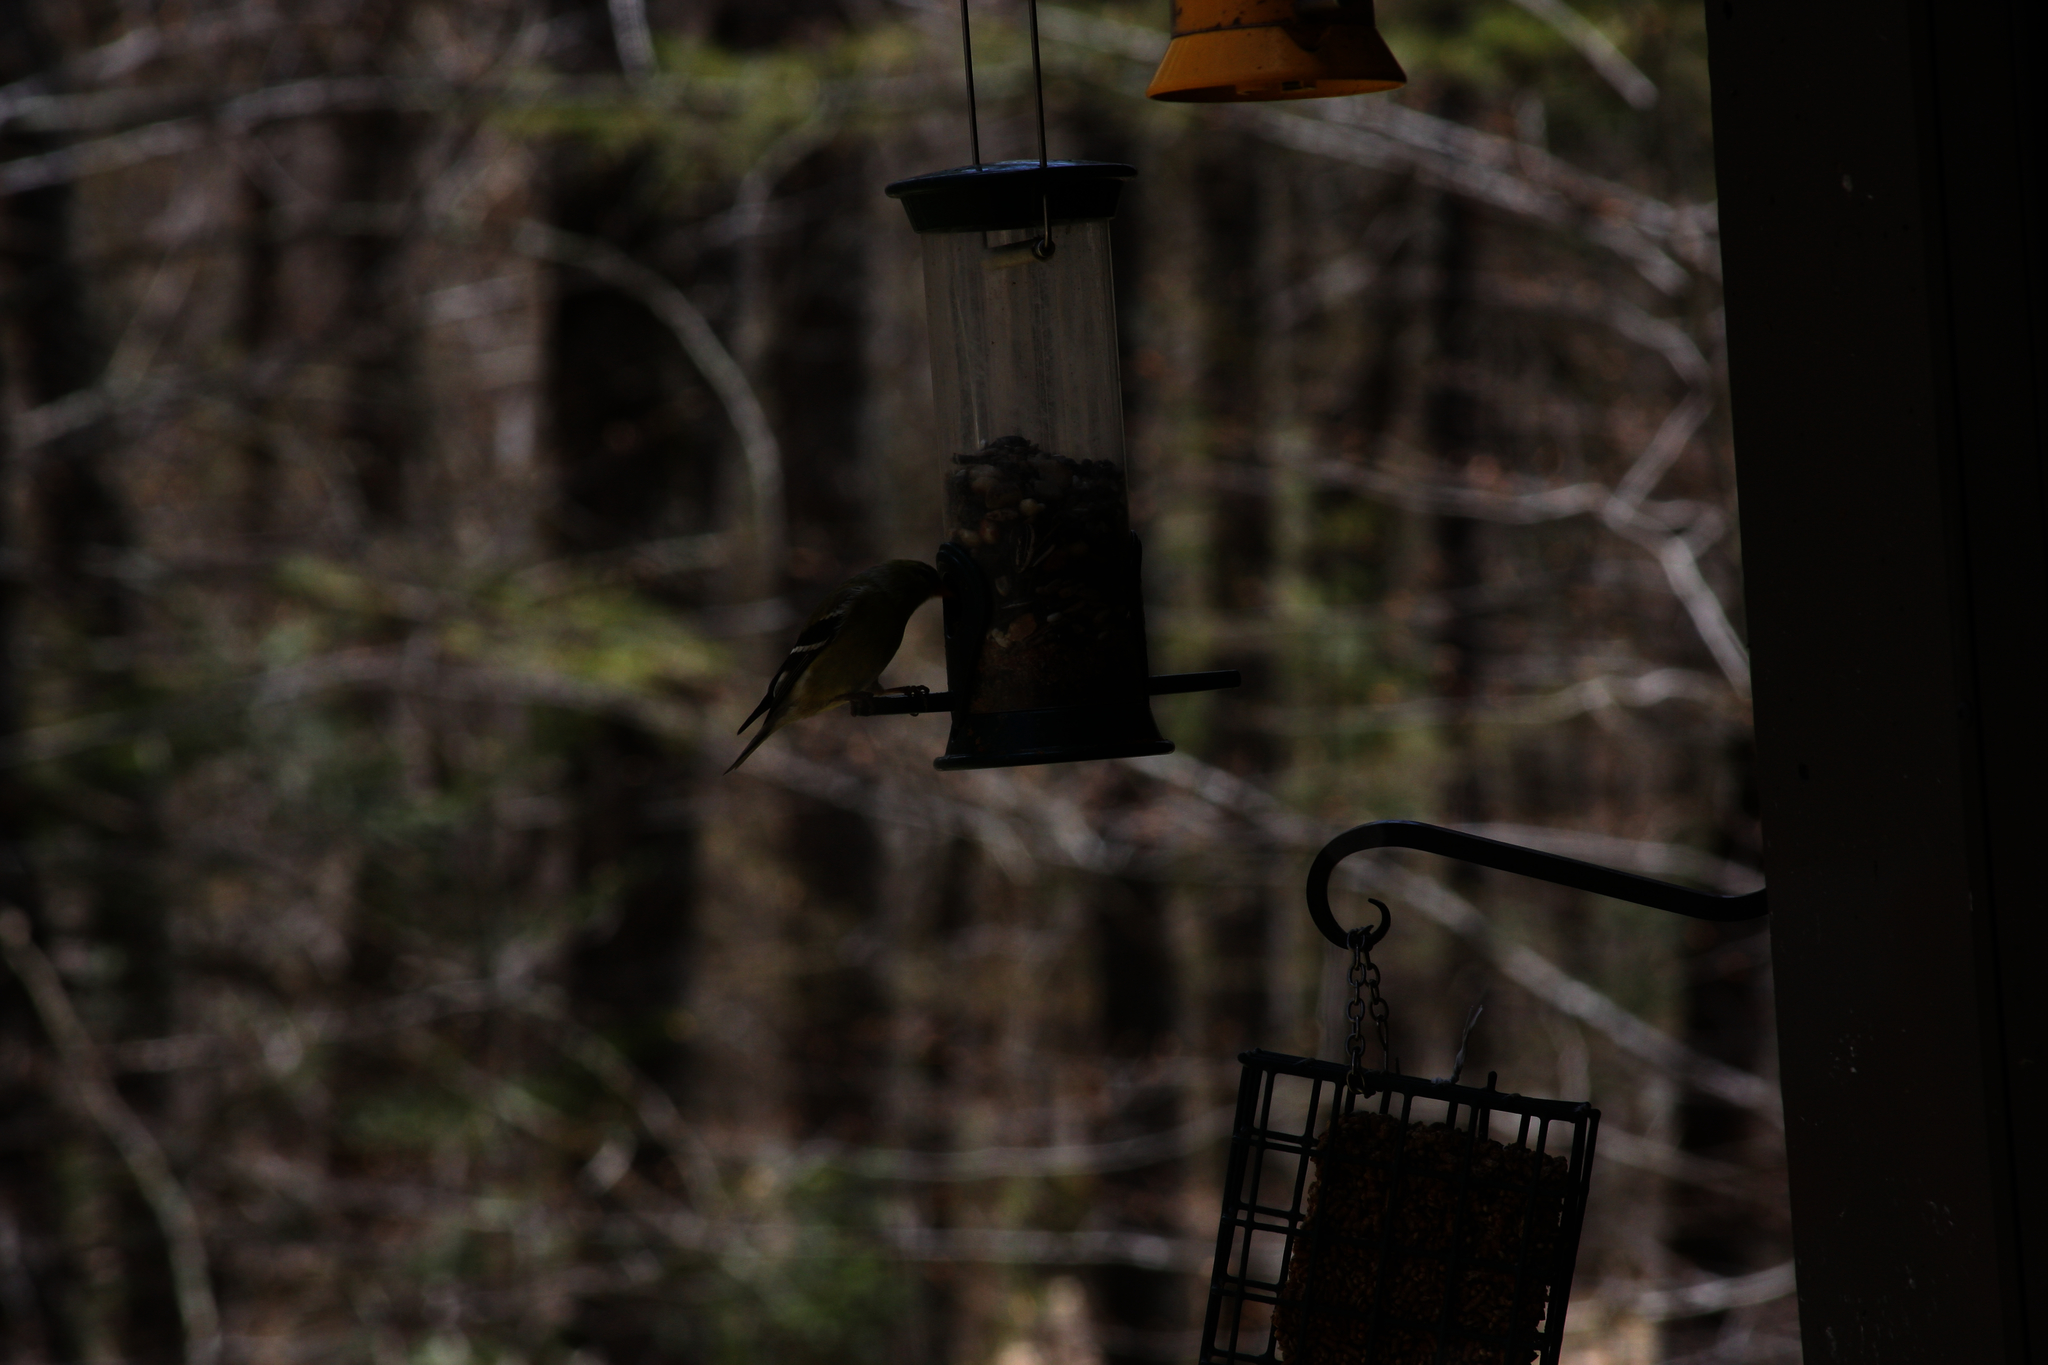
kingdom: Animalia
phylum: Chordata
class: Aves
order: Passeriformes
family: Fringillidae
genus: Spinus
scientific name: Spinus tristis
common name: American goldfinch
